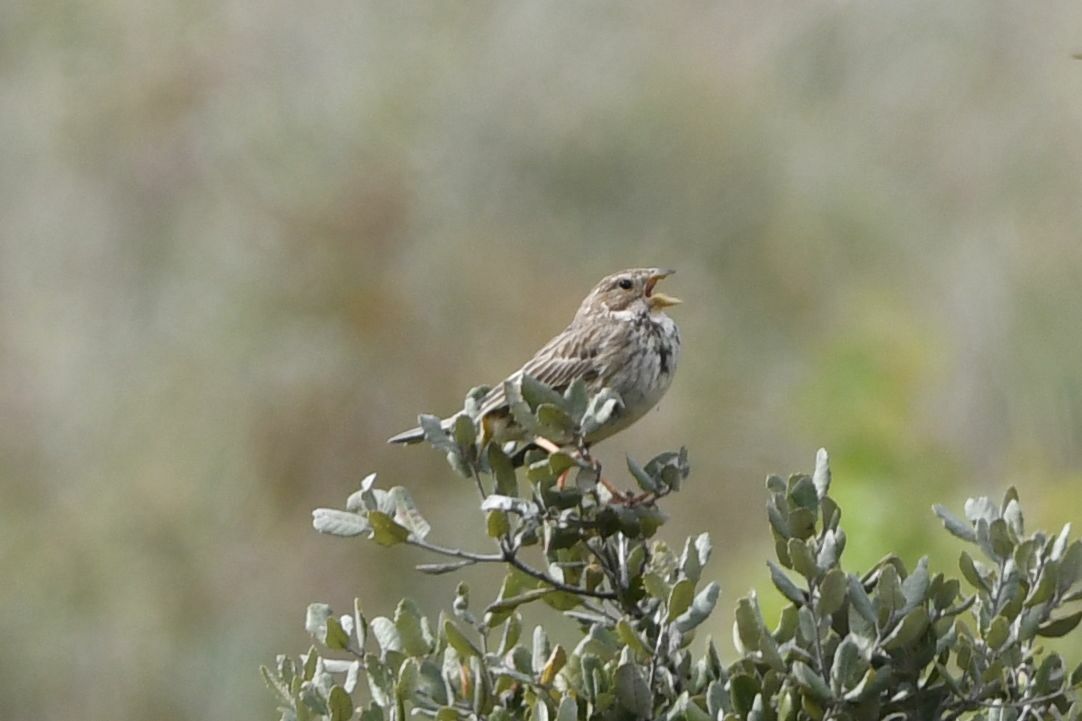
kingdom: Animalia
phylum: Chordata
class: Aves
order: Passeriformes
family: Emberizidae
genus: Emberiza
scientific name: Emberiza calandra
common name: Corn bunting
